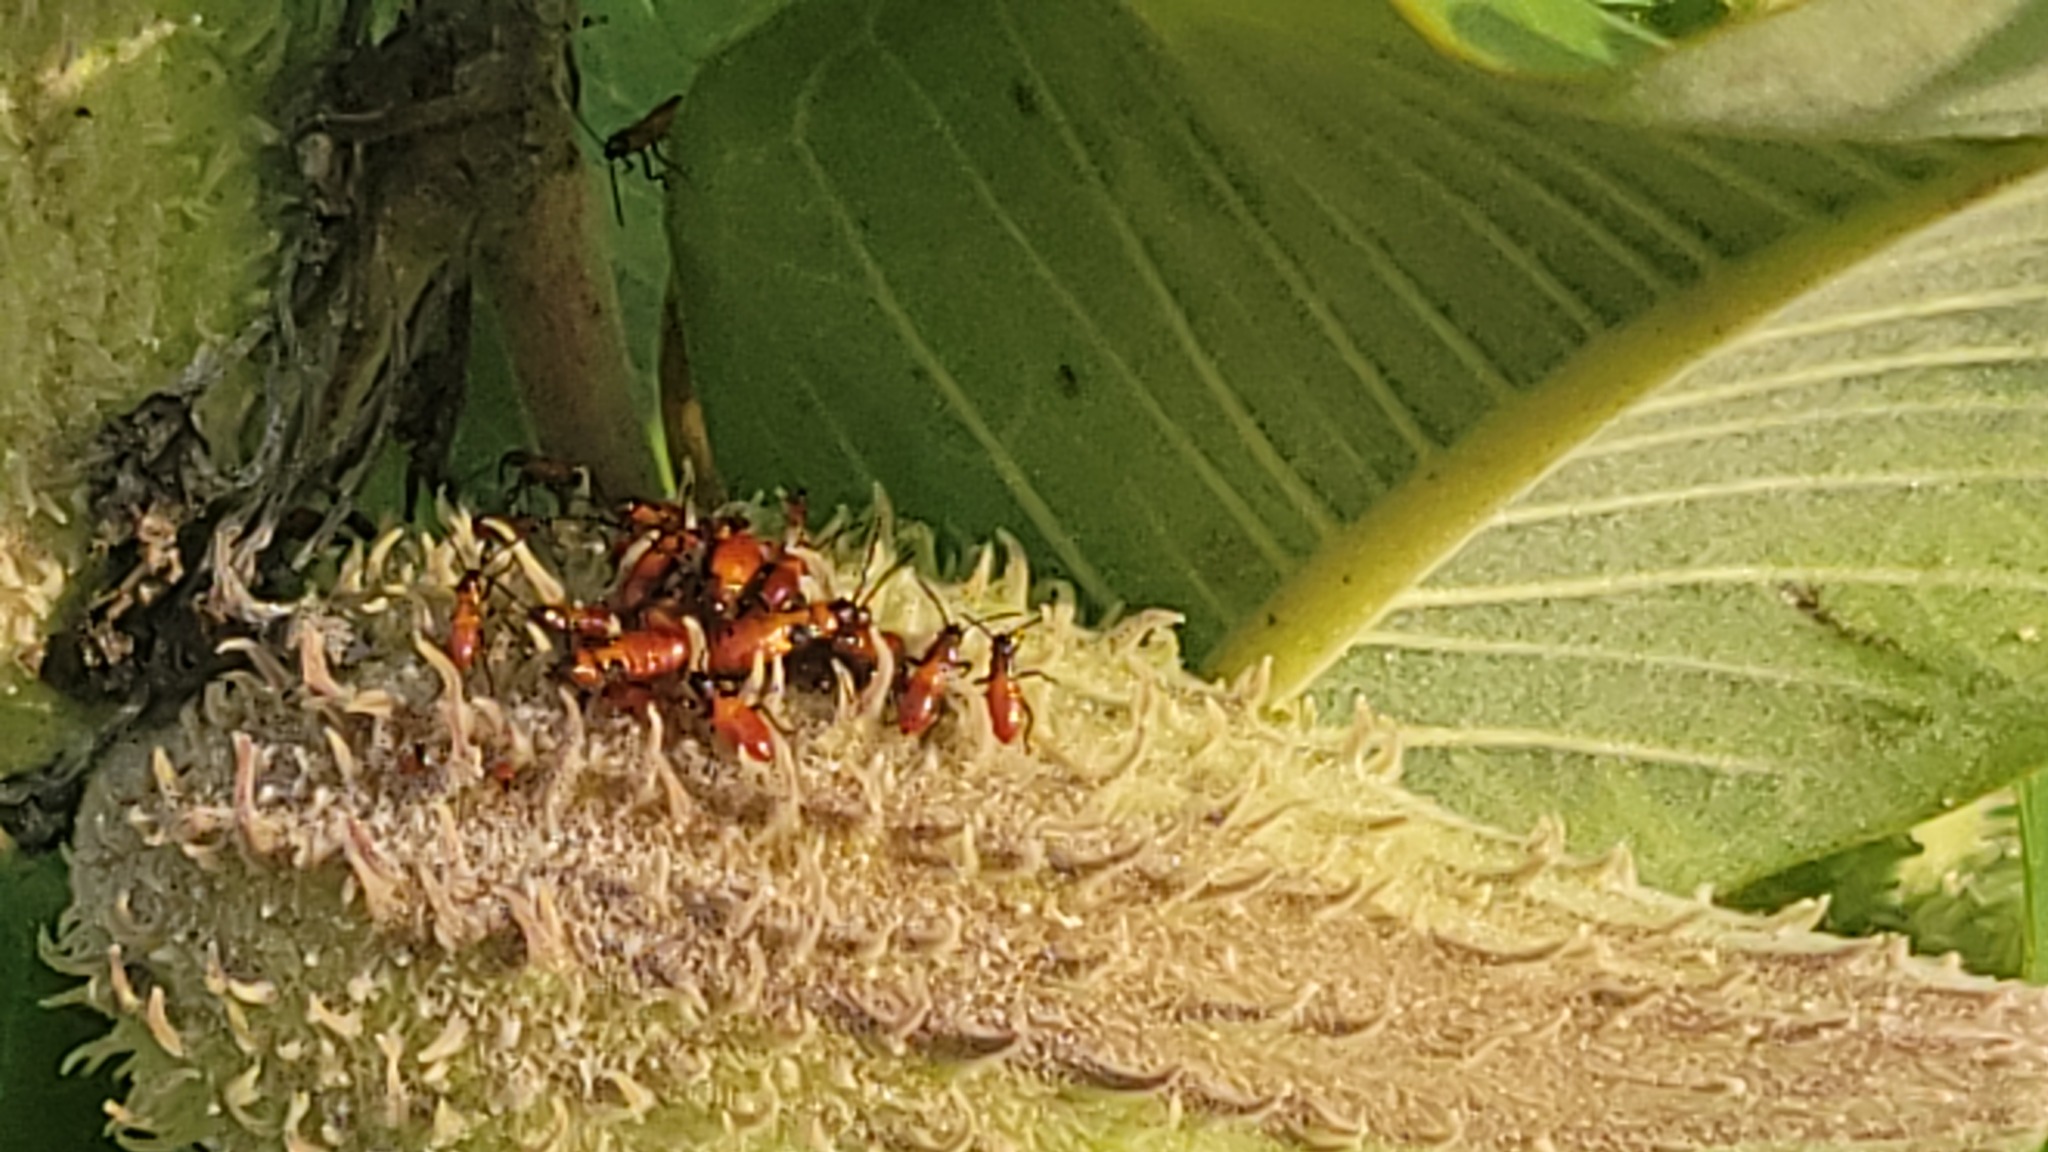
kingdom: Animalia
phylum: Arthropoda
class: Insecta
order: Hemiptera
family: Lygaeidae
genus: Oncopeltus
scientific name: Oncopeltus fasciatus
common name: Large milkweed bug
